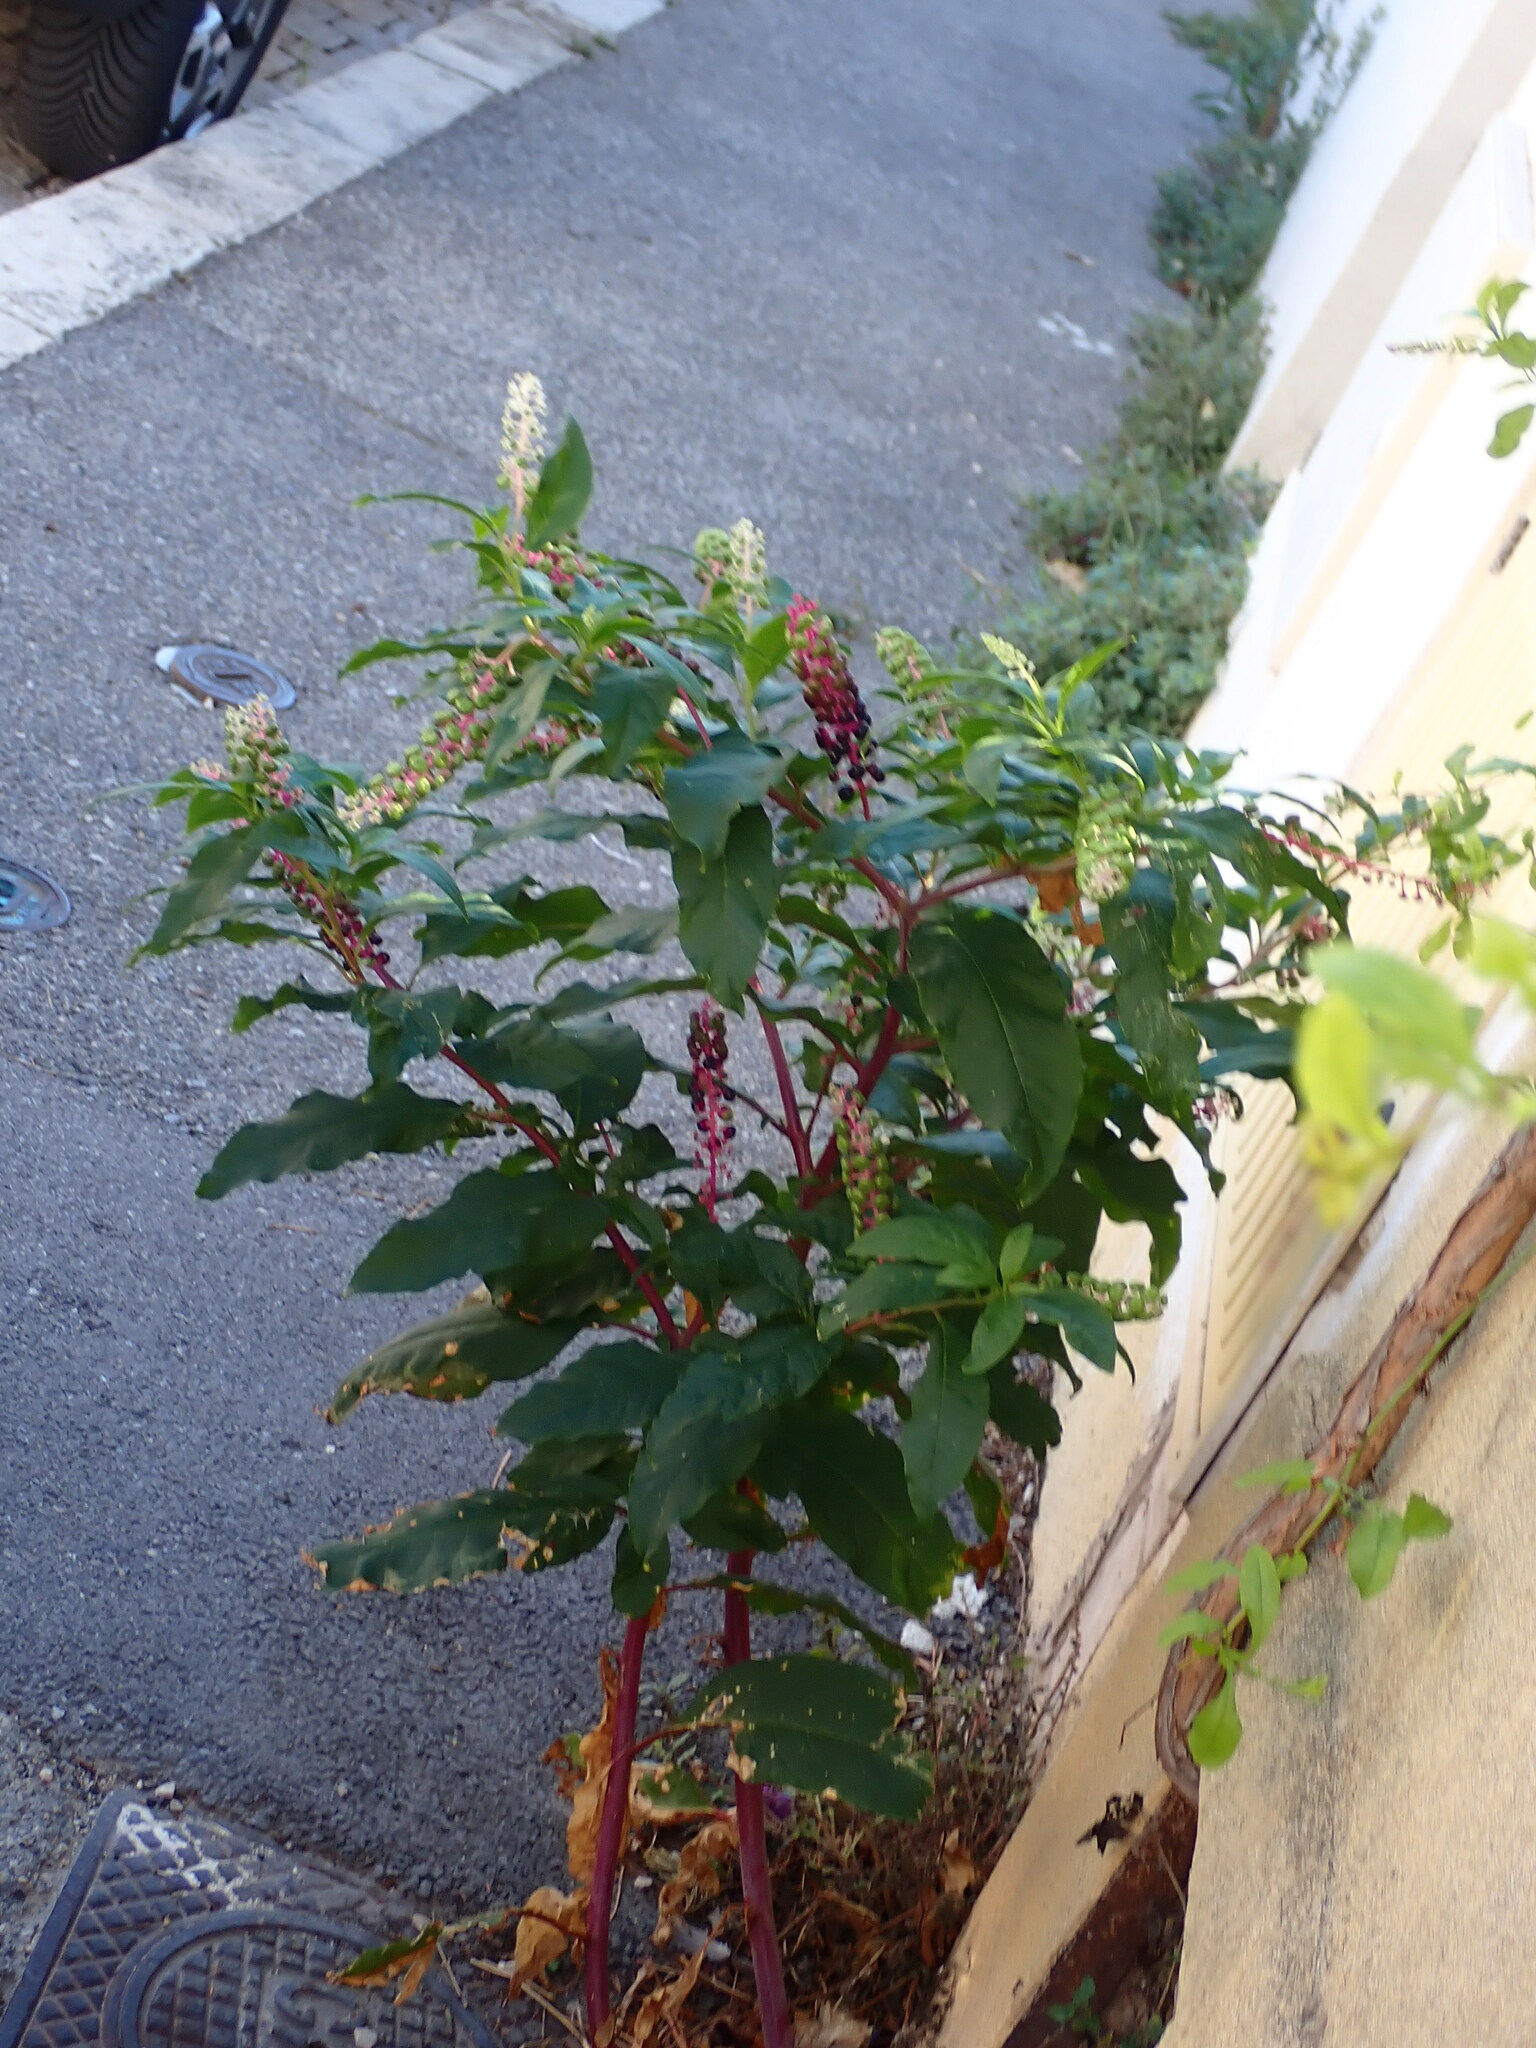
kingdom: Plantae
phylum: Tracheophyta
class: Magnoliopsida
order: Caryophyllales
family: Phytolaccaceae
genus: Phytolacca
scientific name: Phytolacca americana
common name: American pokeweed
